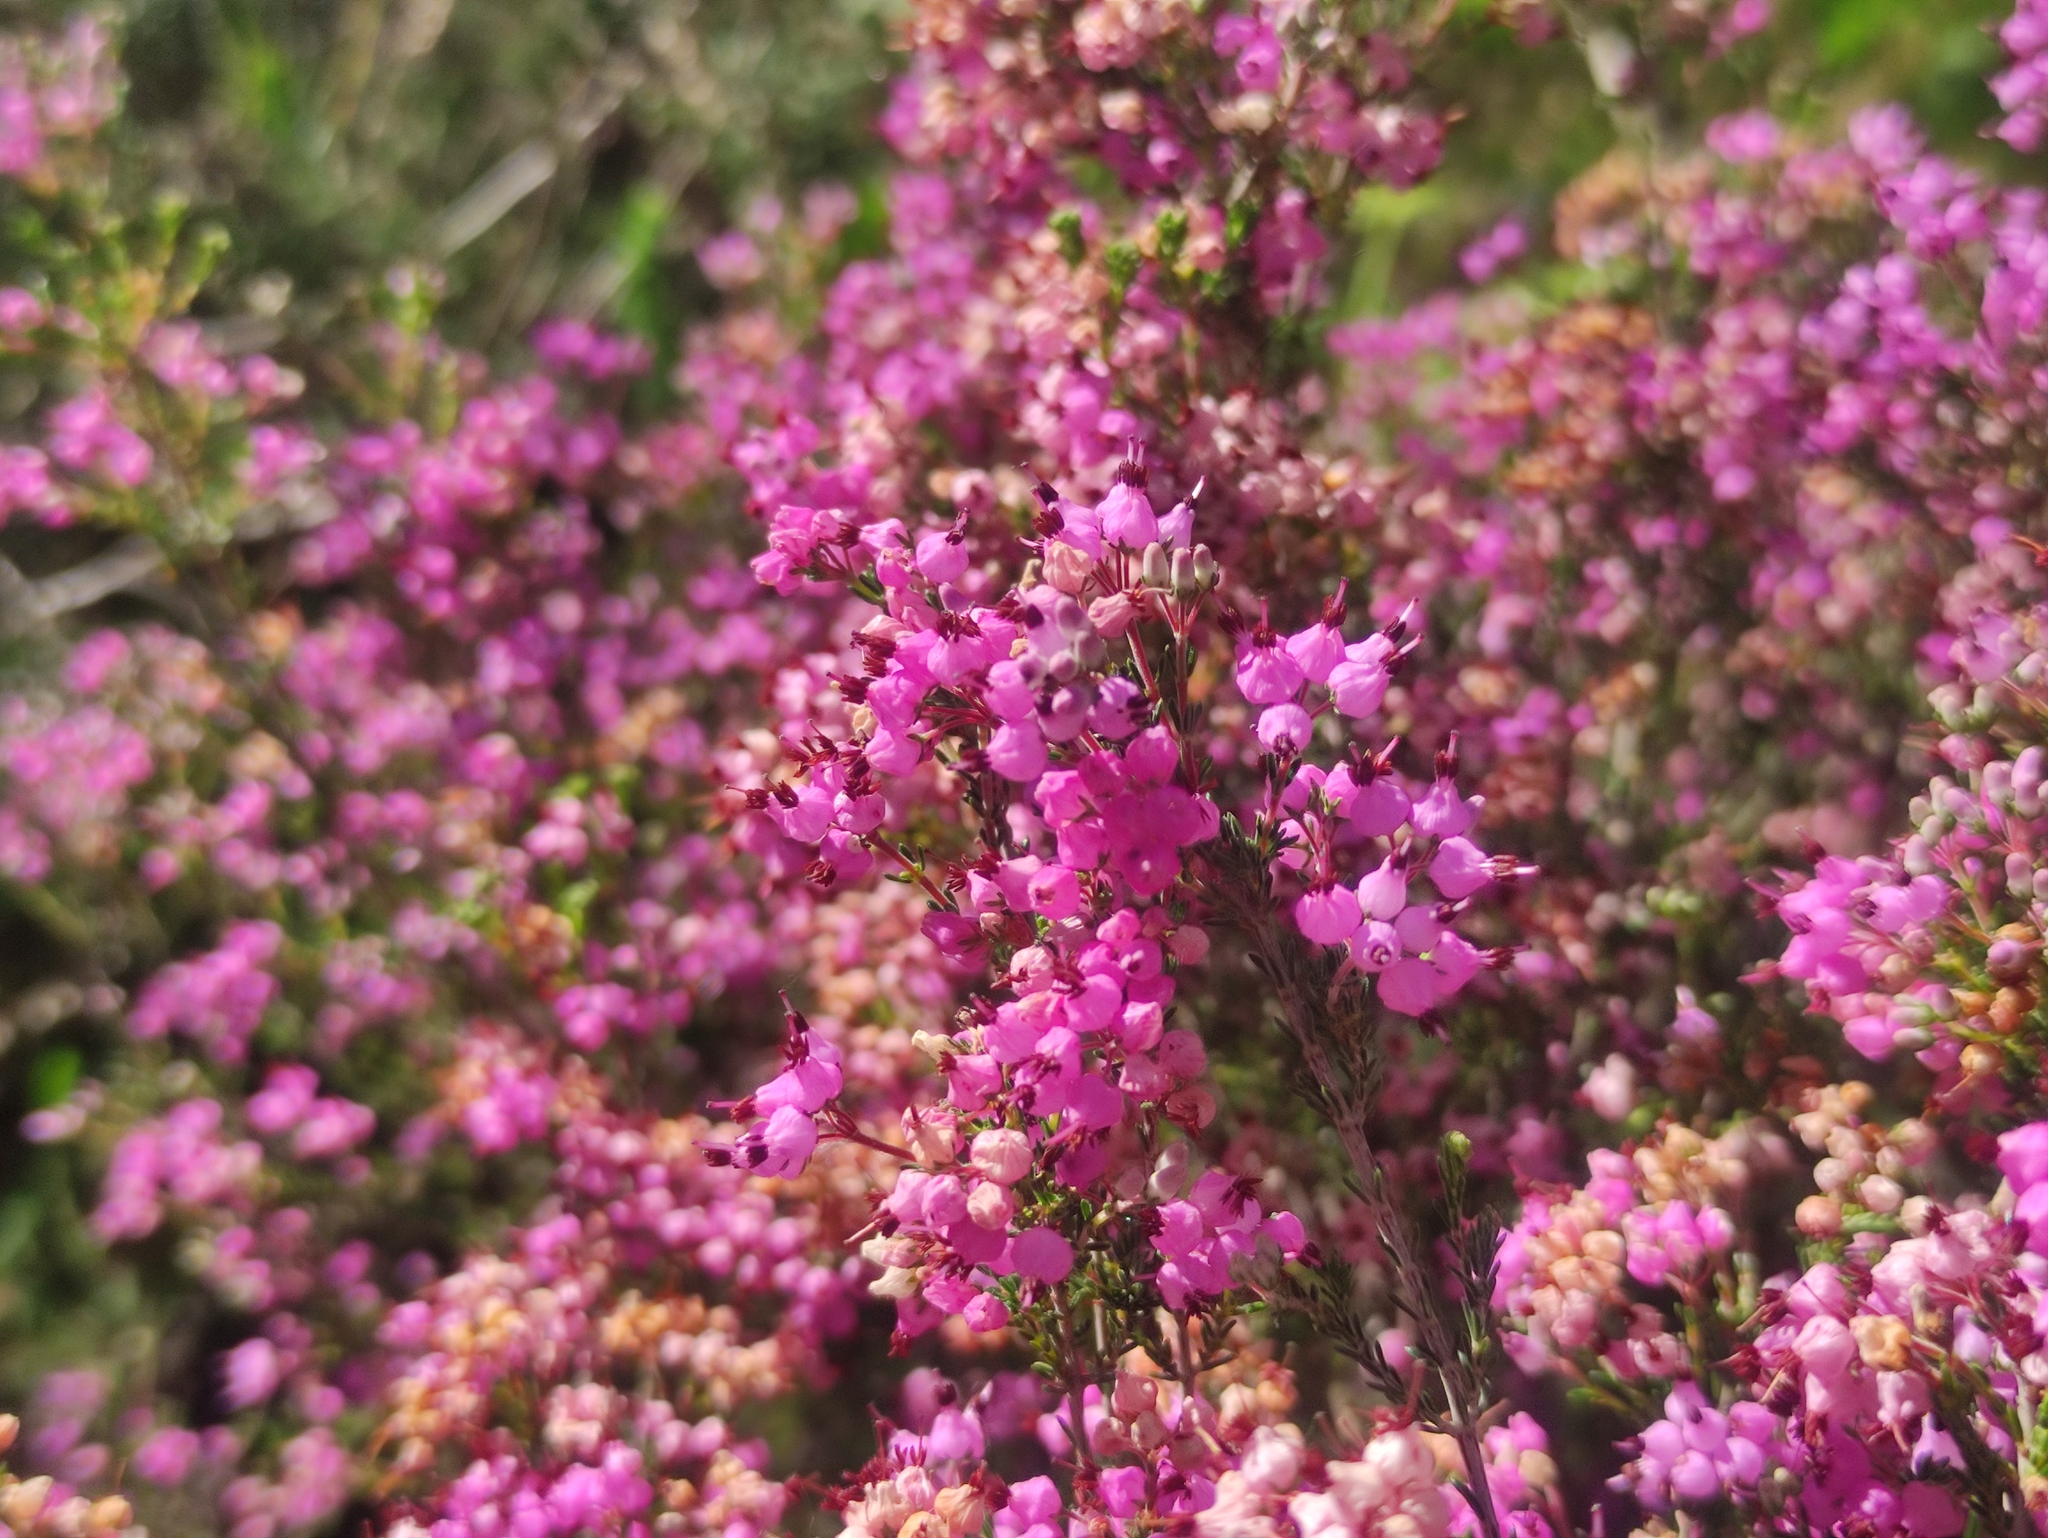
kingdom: Plantae
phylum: Tracheophyta
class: Magnoliopsida
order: Ericales
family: Ericaceae
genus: Erica
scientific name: Erica umbellata
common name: Dwarf spanish heath
